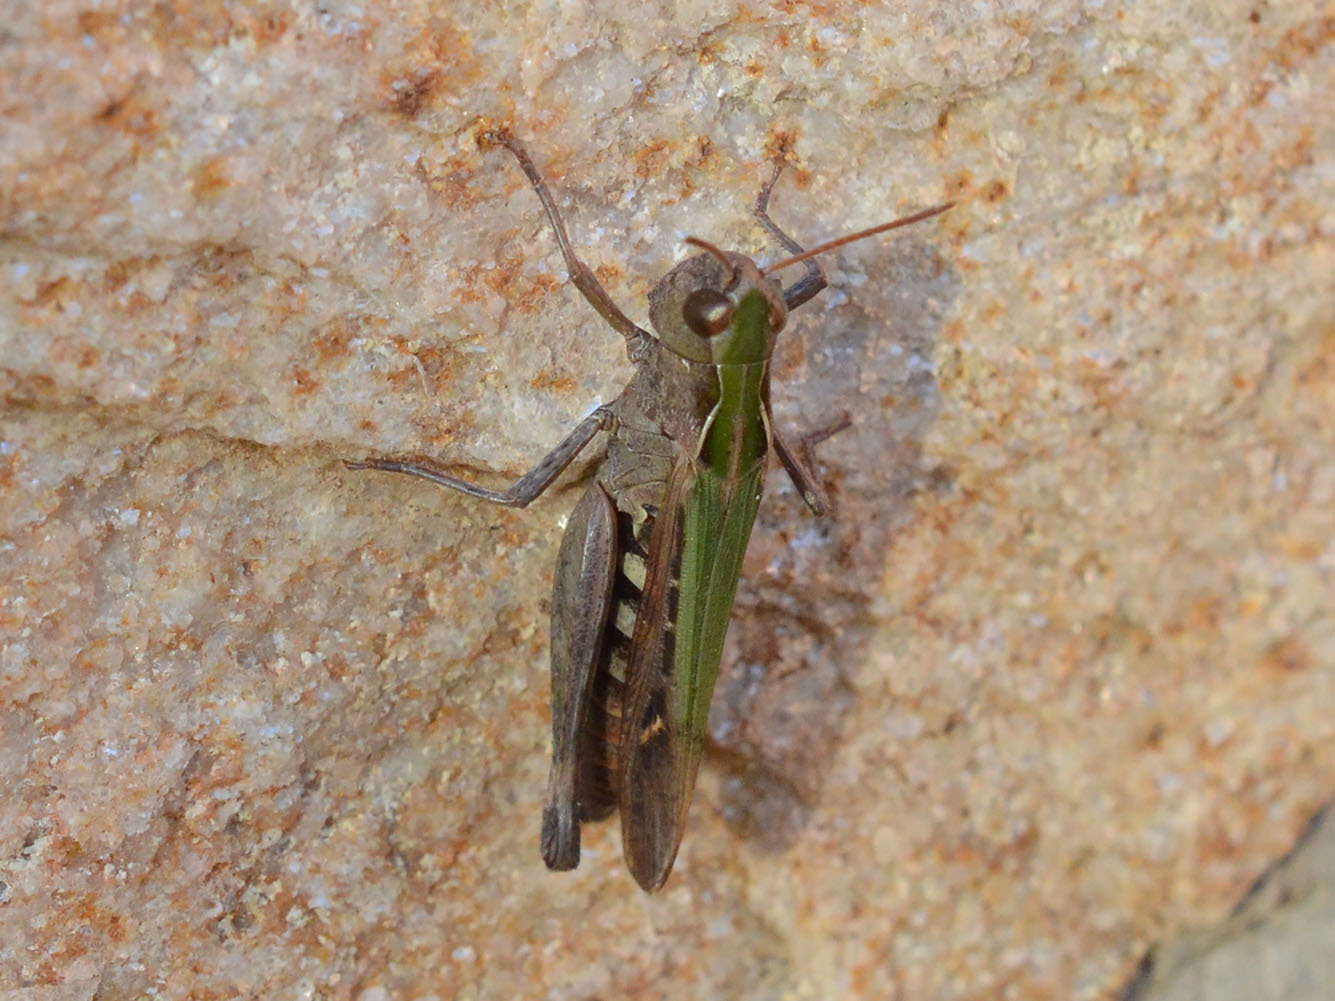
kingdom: Animalia
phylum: Arthropoda
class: Insecta
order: Orthoptera
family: Acrididae
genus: Omocestus
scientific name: Omocestus rufipes
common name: Woodland grasshopper
